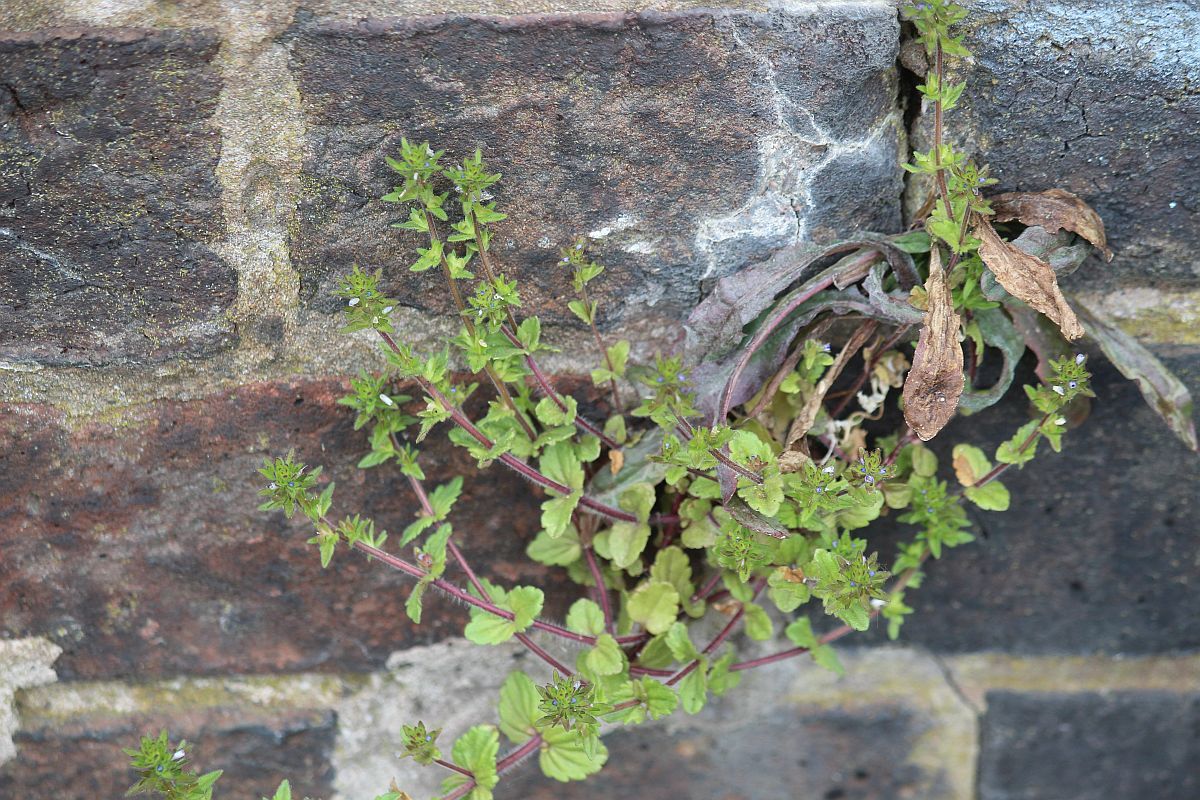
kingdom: Plantae
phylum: Tracheophyta
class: Magnoliopsida
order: Lamiales
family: Plantaginaceae
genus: Veronica
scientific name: Veronica arvensis
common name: Corn speedwell
